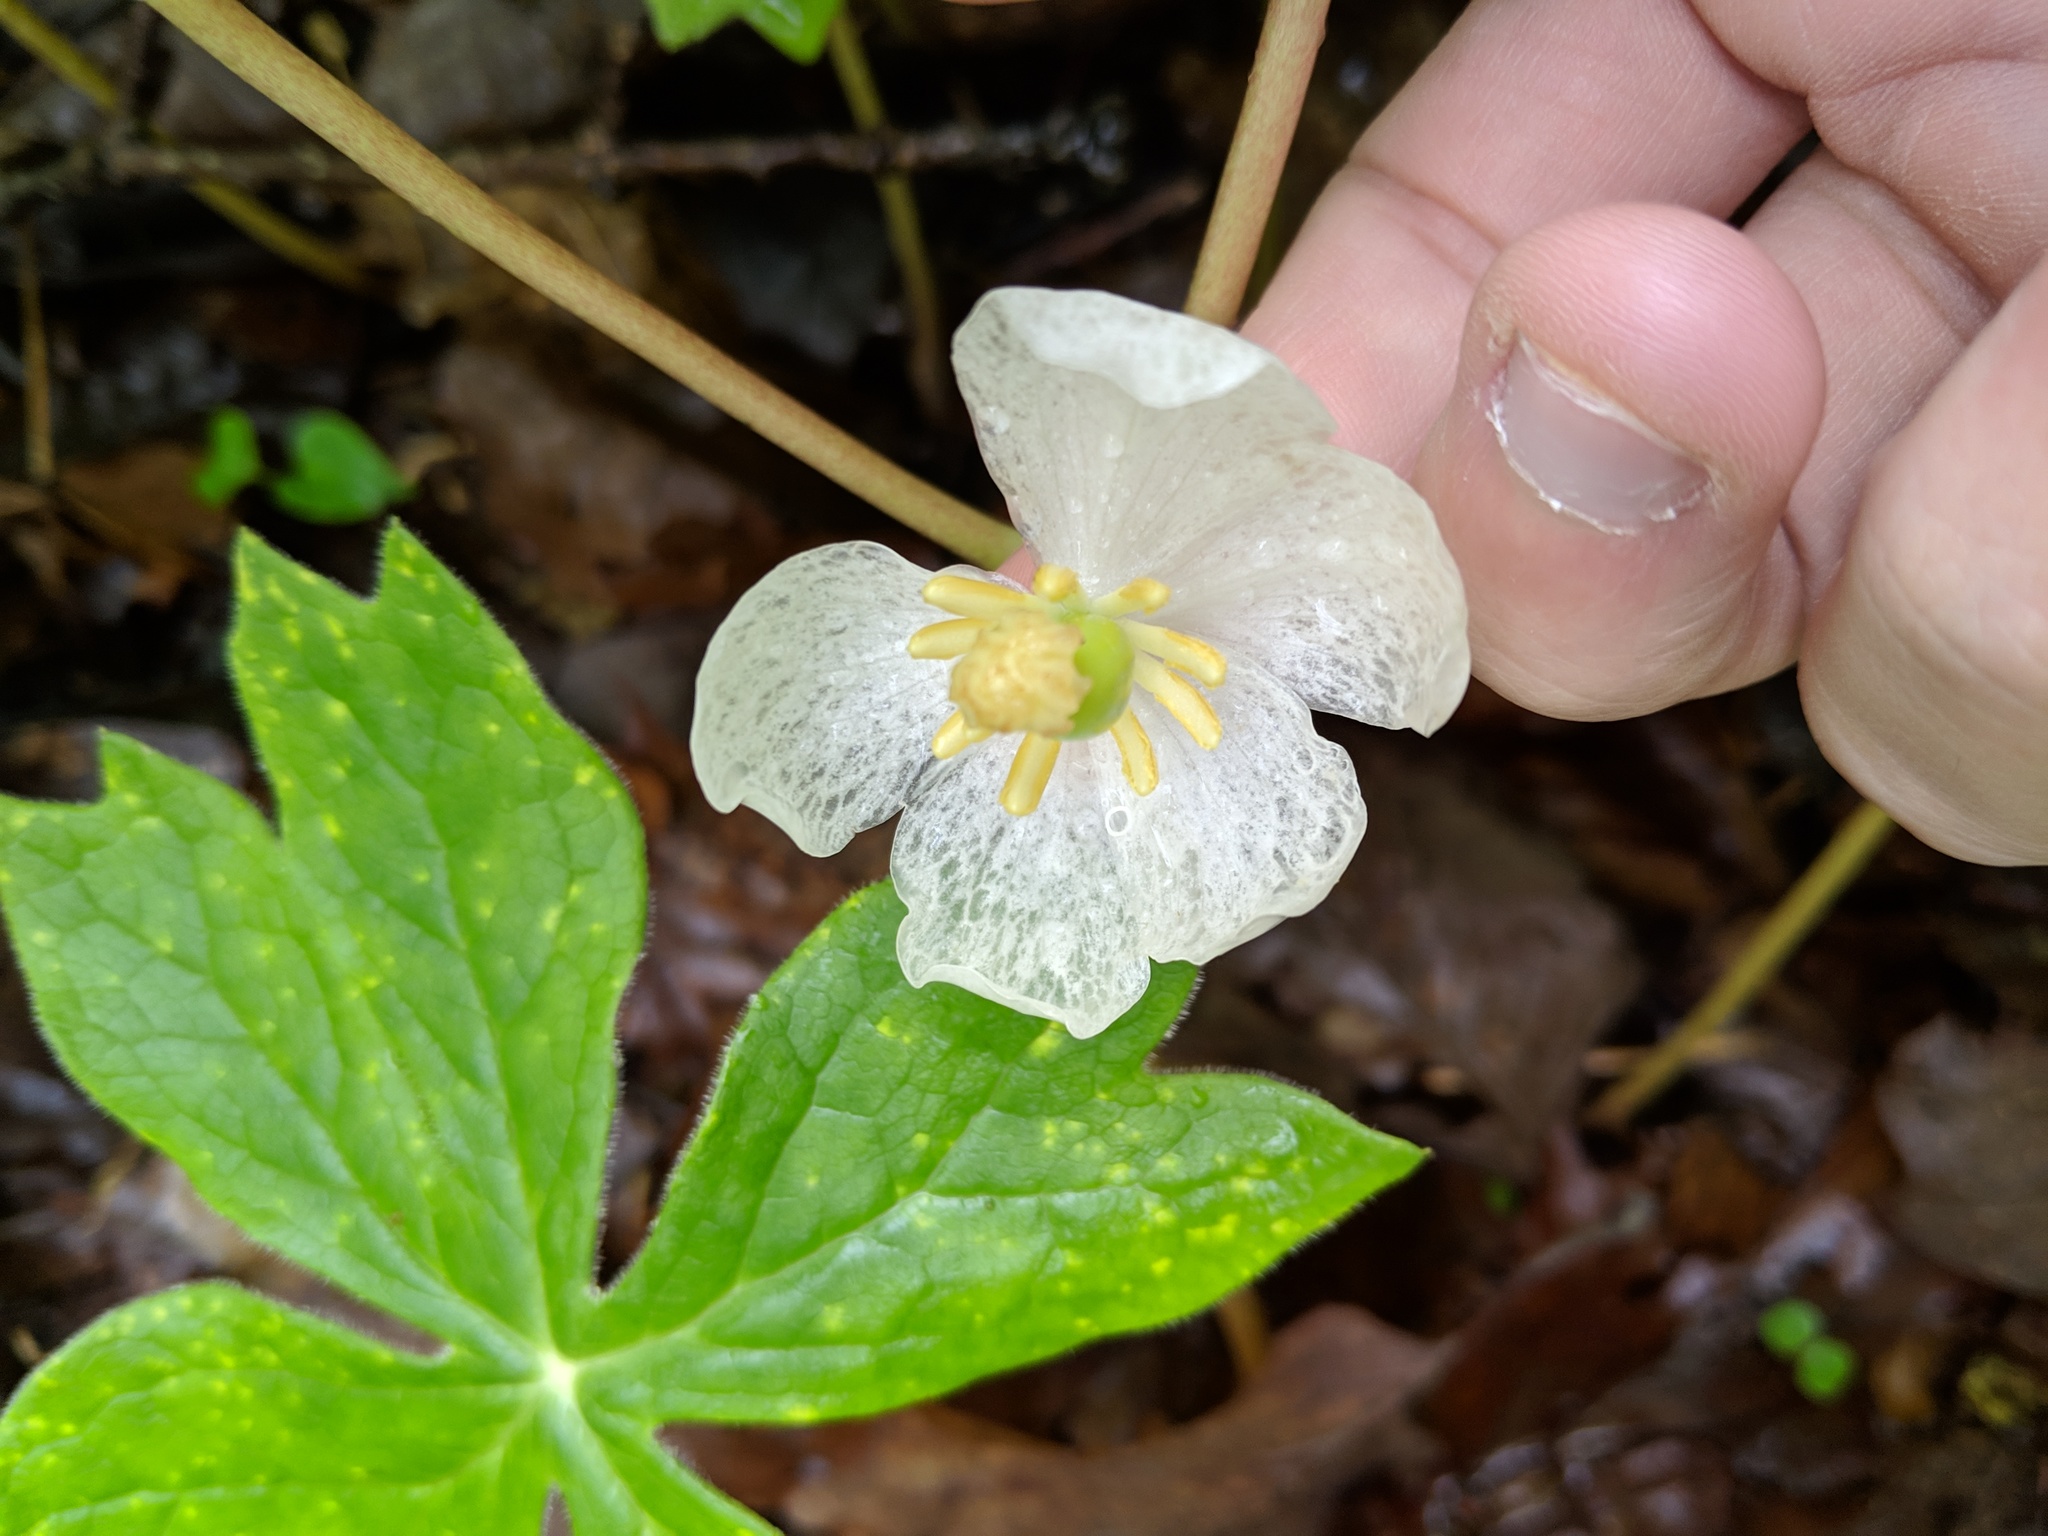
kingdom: Plantae
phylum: Tracheophyta
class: Magnoliopsida
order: Ranunculales
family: Berberidaceae
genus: Podophyllum
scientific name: Podophyllum peltatum
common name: Wild mandrake
